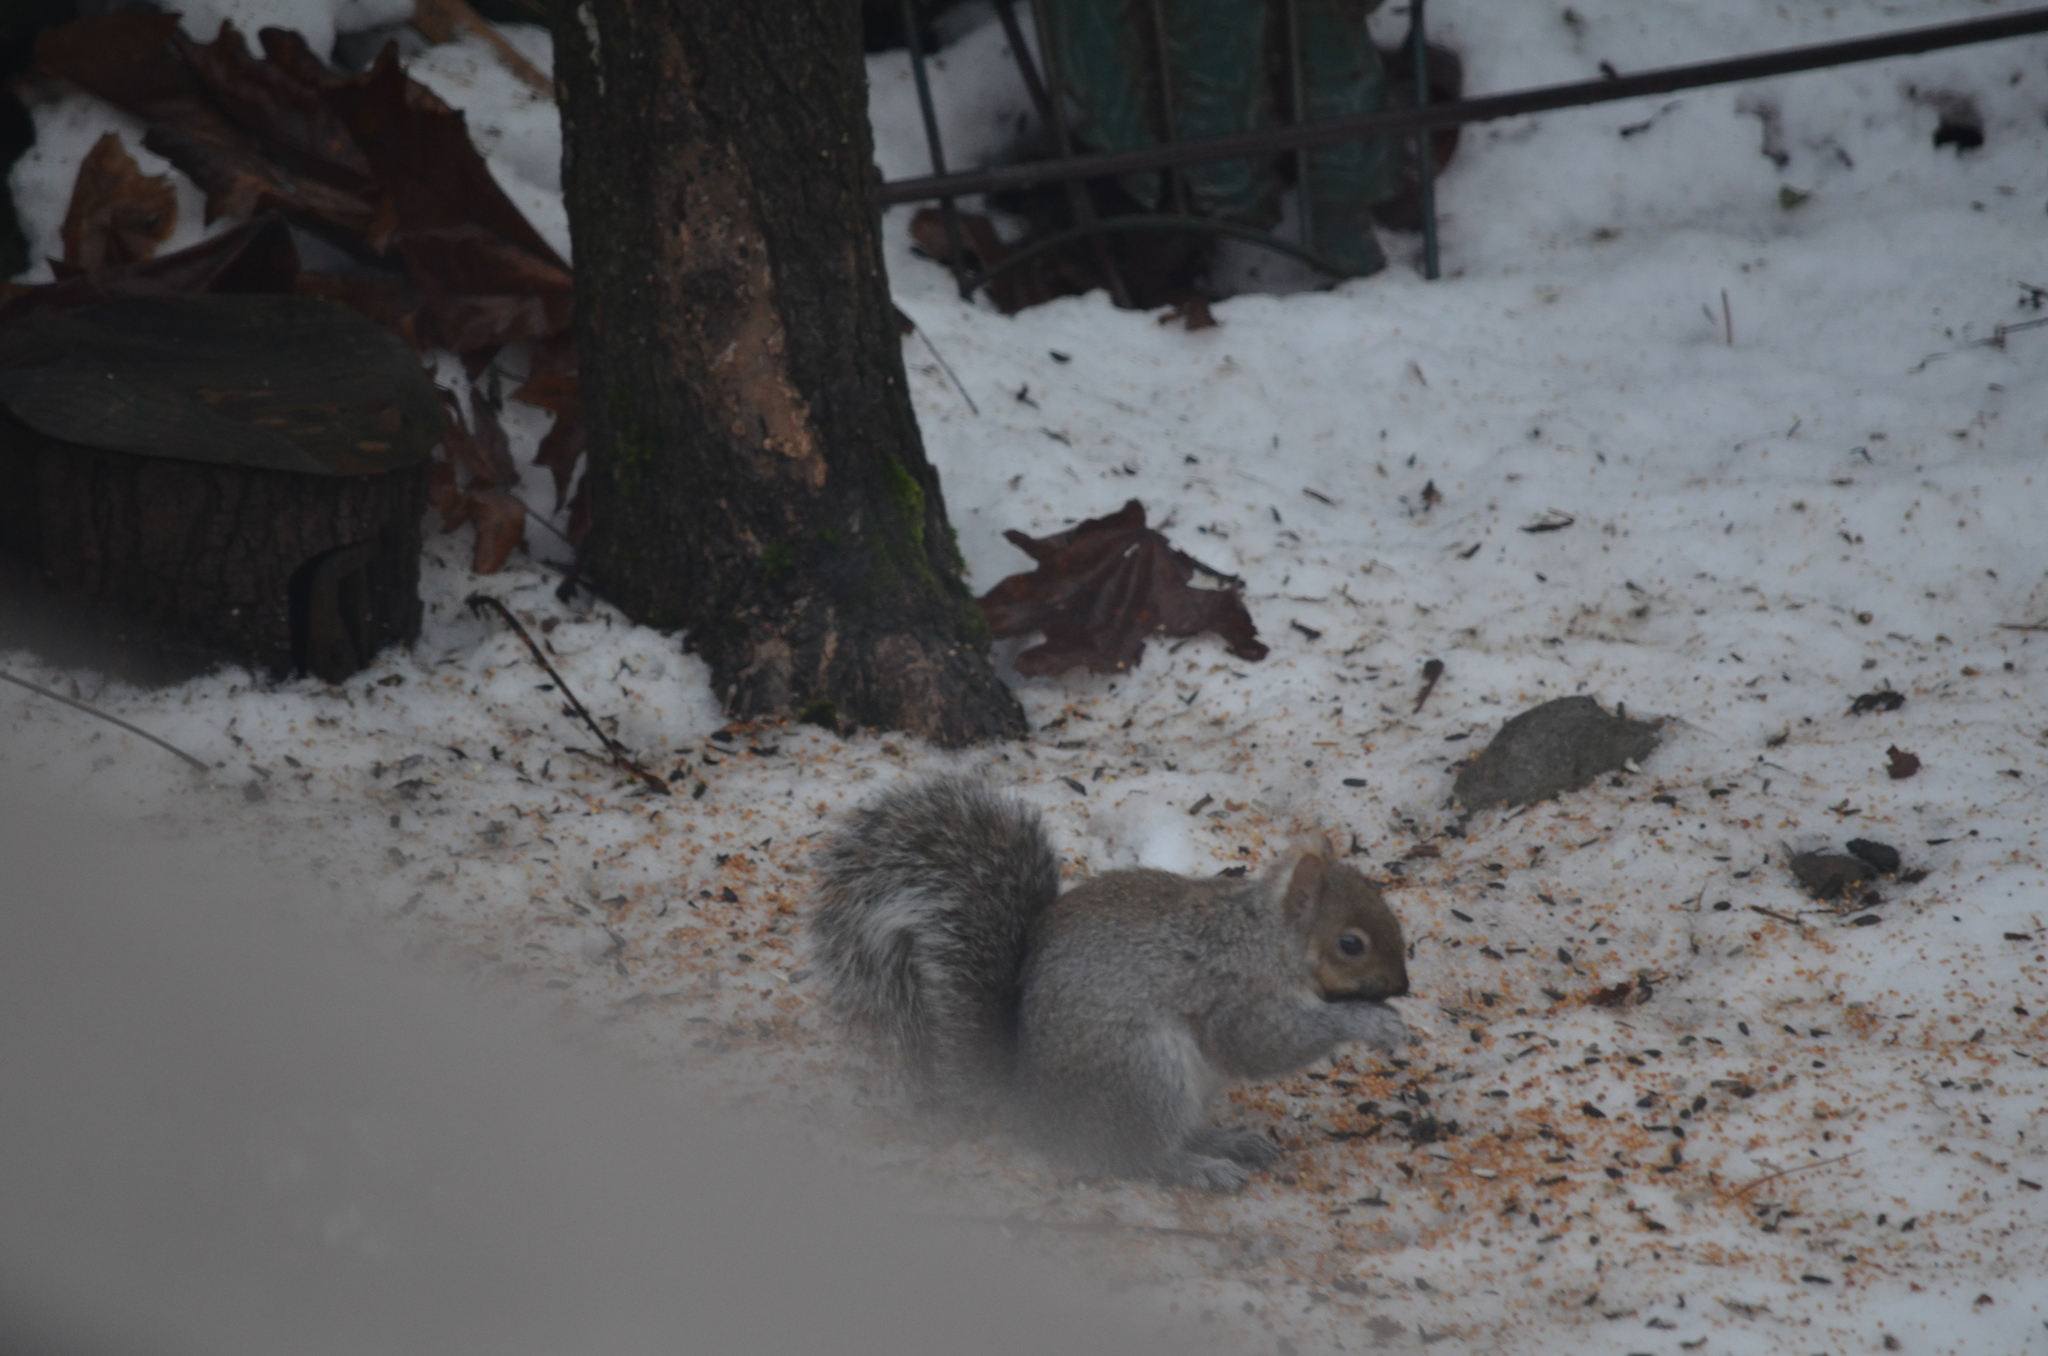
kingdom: Animalia
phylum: Chordata
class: Mammalia
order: Rodentia
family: Sciuridae
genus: Sciurus
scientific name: Sciurus carolinensis
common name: Eastern gray squirrel
